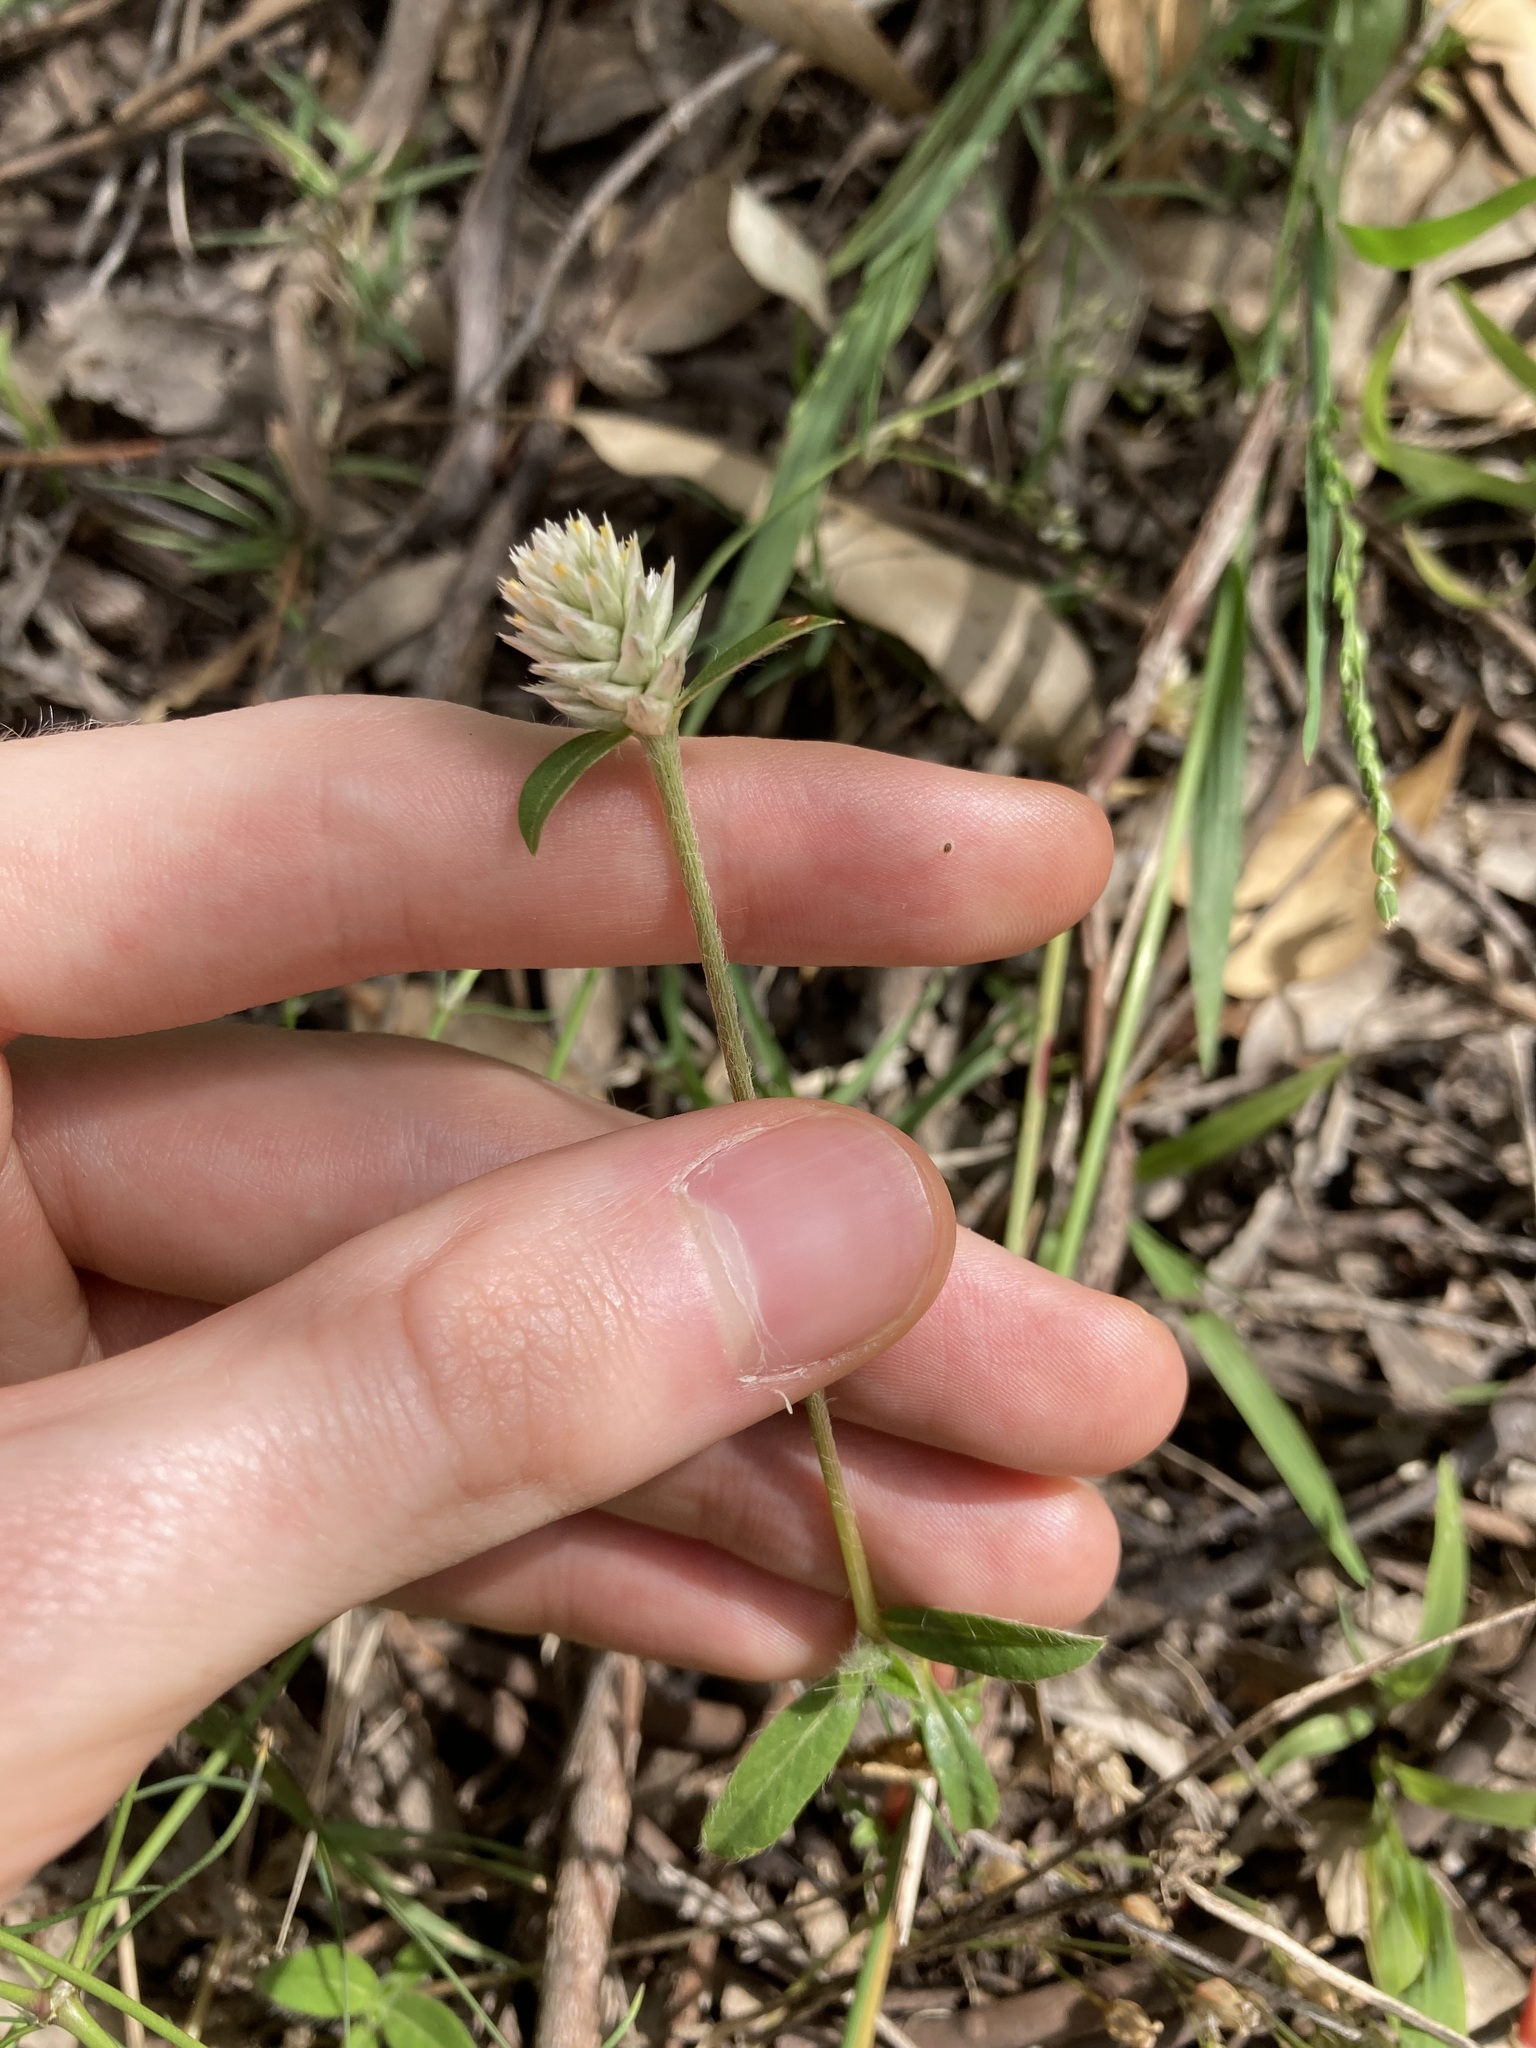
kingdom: Plantae
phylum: Tracheophyta
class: Magnoliopsida
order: Caryophyllales
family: Amaranthaceae
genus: Gomphrena
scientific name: Gomphrena celosioides
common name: Gomphrena-weed
